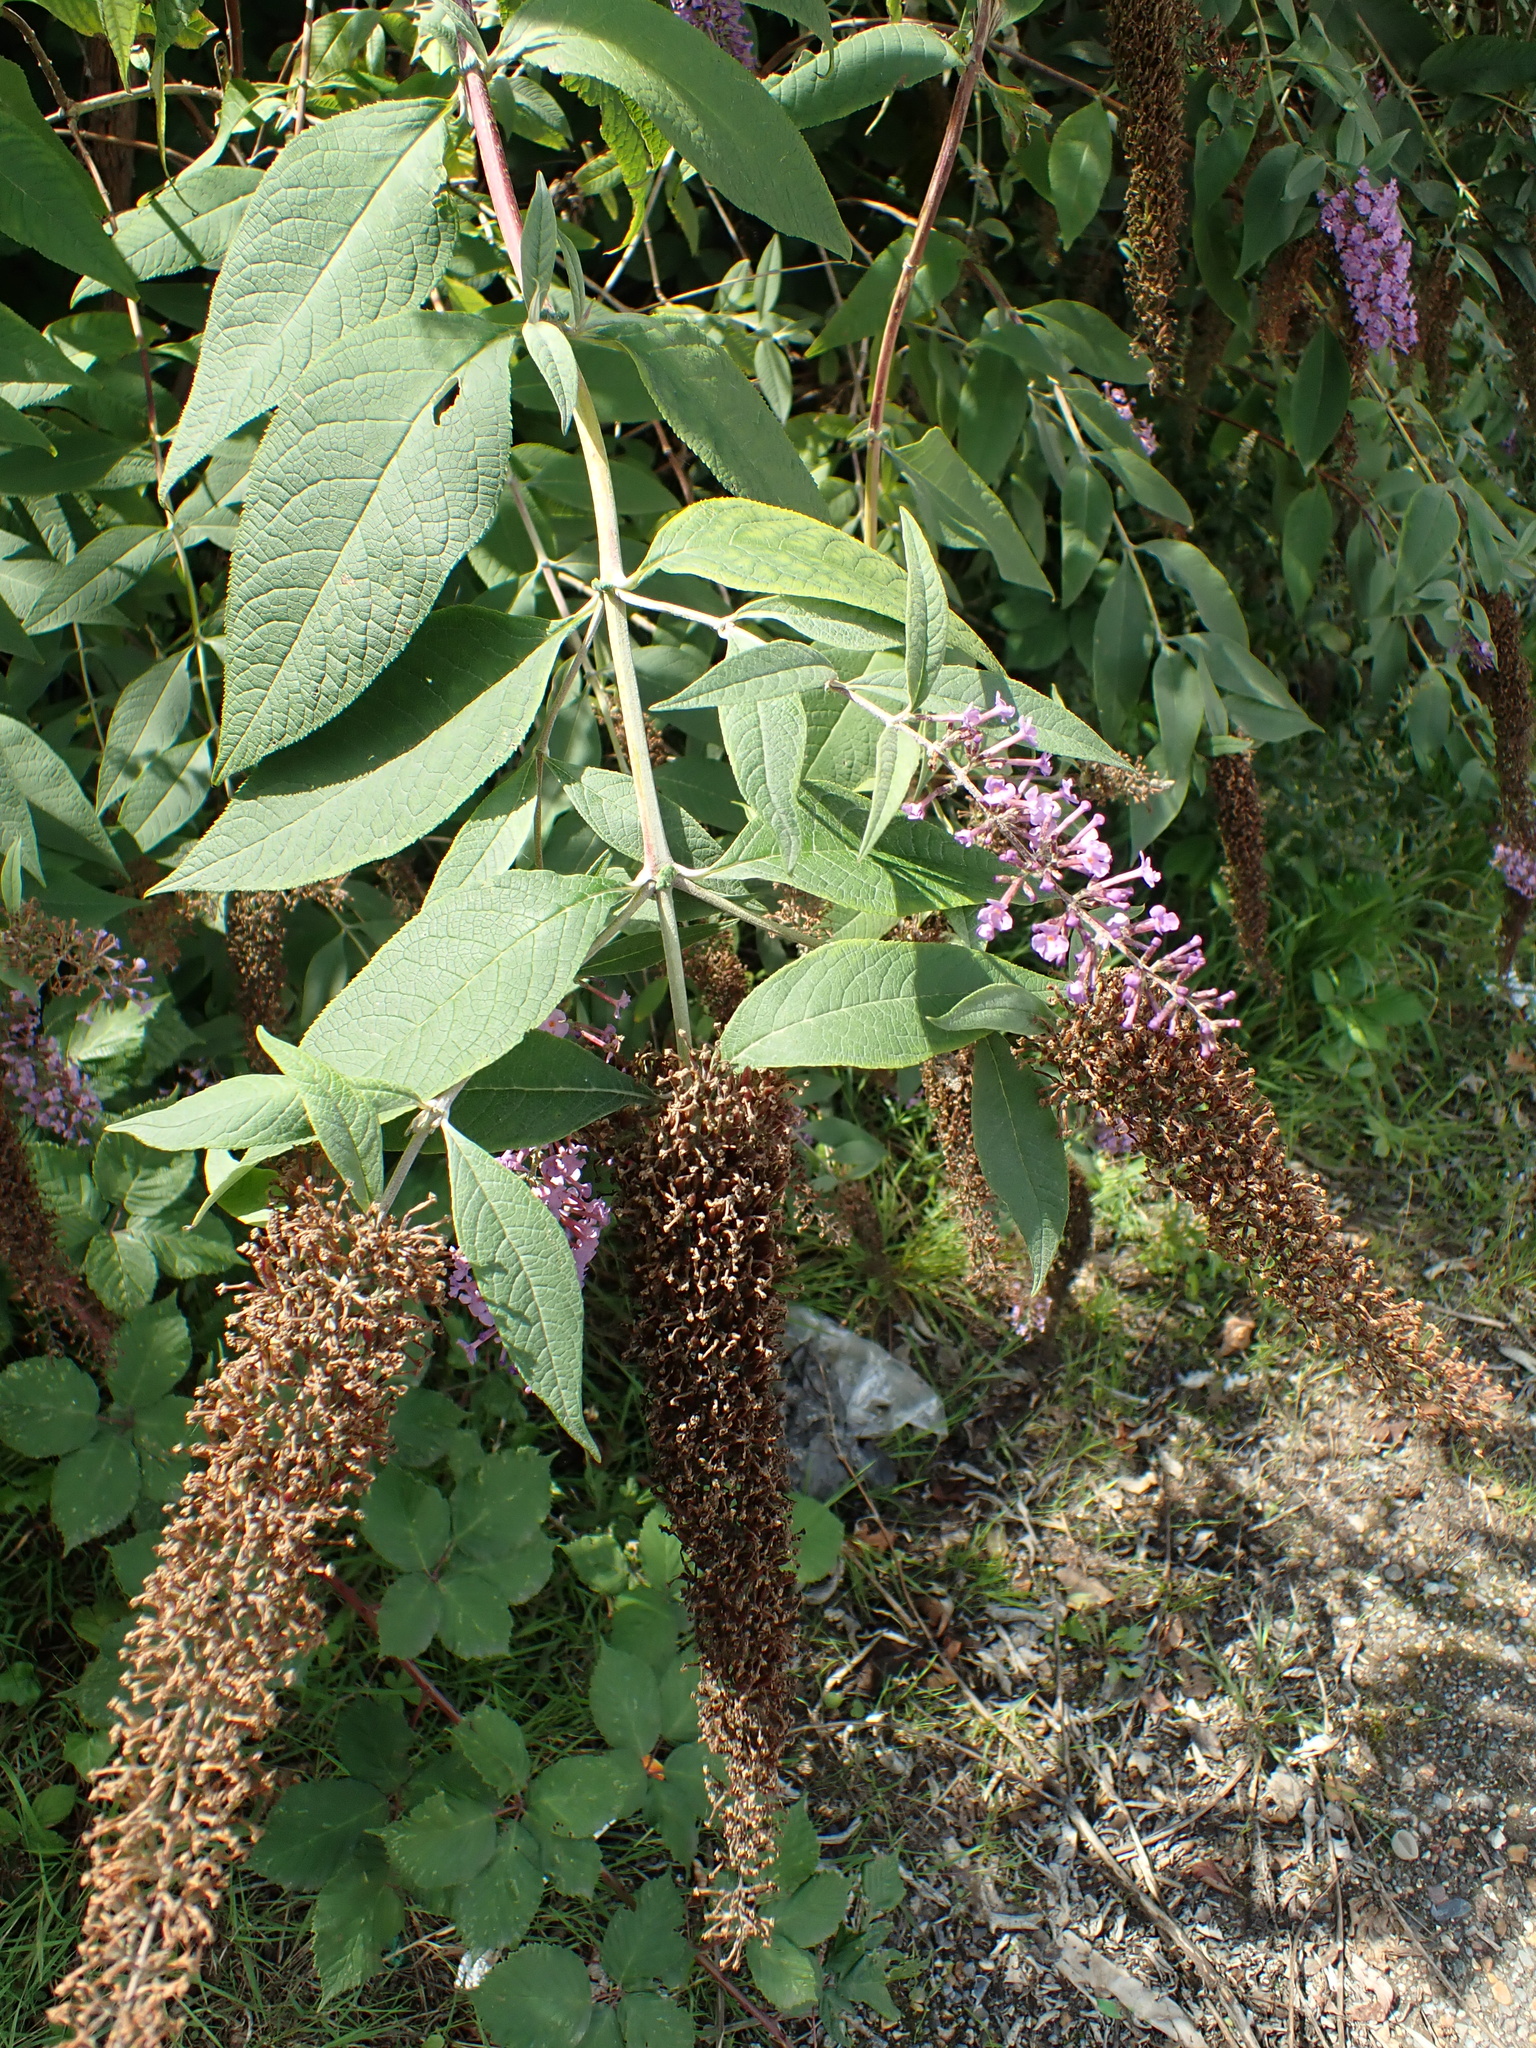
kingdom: Plantae
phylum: Tracheophyta
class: Magnoliopsida
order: Lamiales
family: Scrophulariaceae
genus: Buddleja
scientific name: Buddleja davidii
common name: Butterfly-bush
